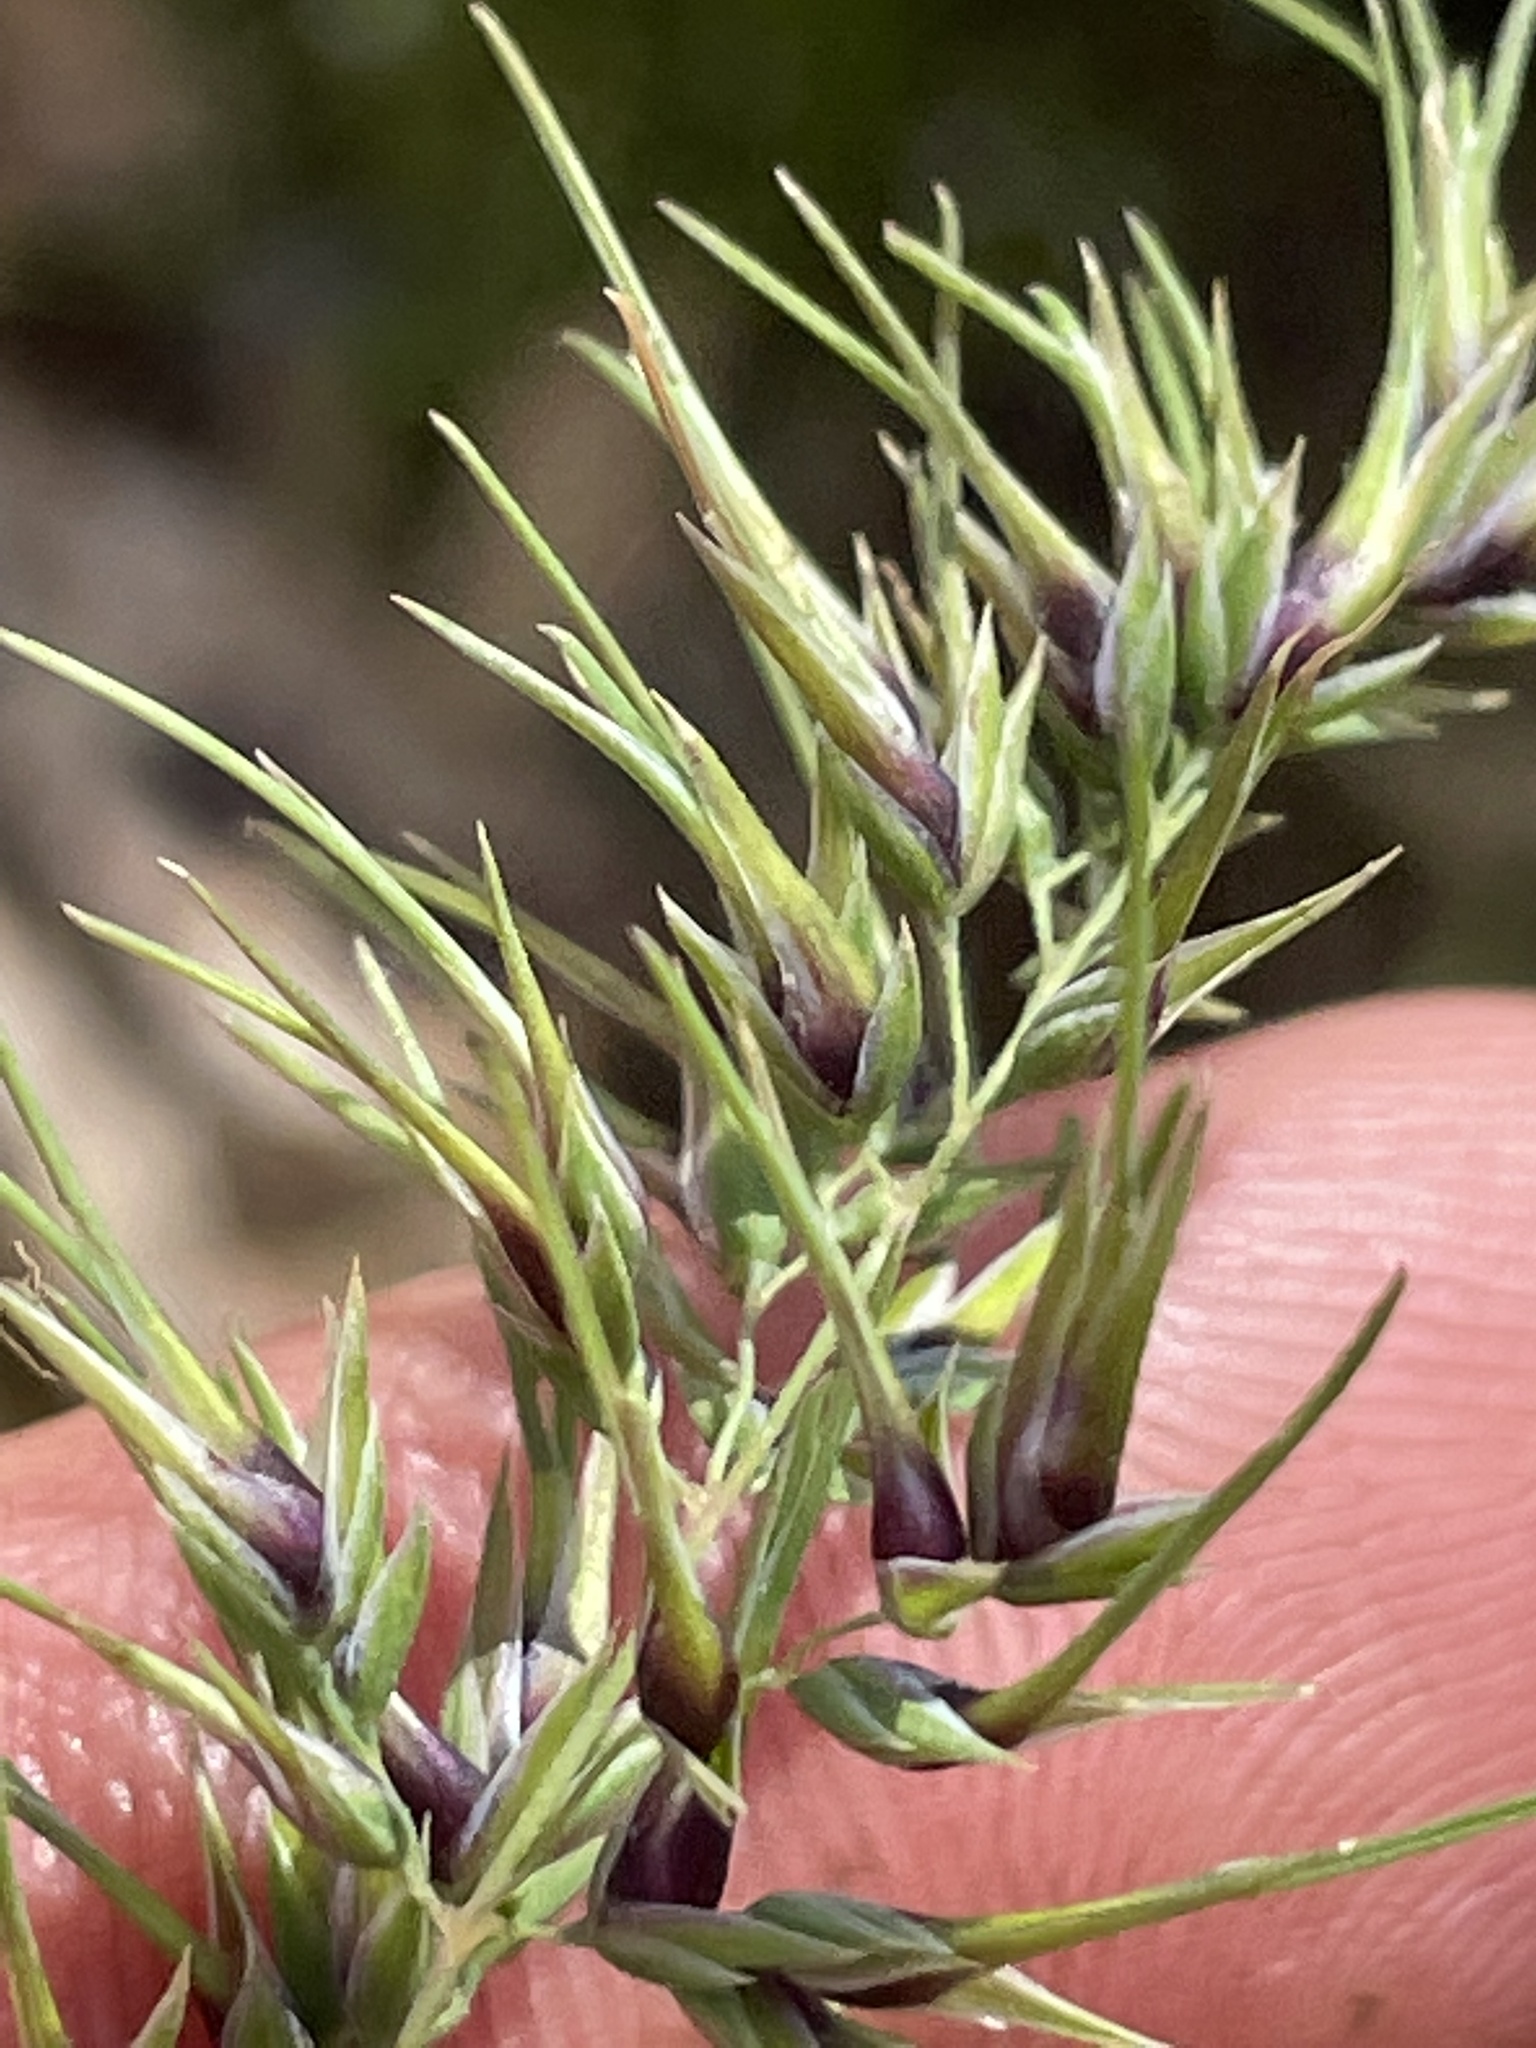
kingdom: Plantae
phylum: Tracheophyta
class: Liliopsida
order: Poales
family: Poaceae
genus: Poa
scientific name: Poa bulbosa
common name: Bulbous bluegrass
